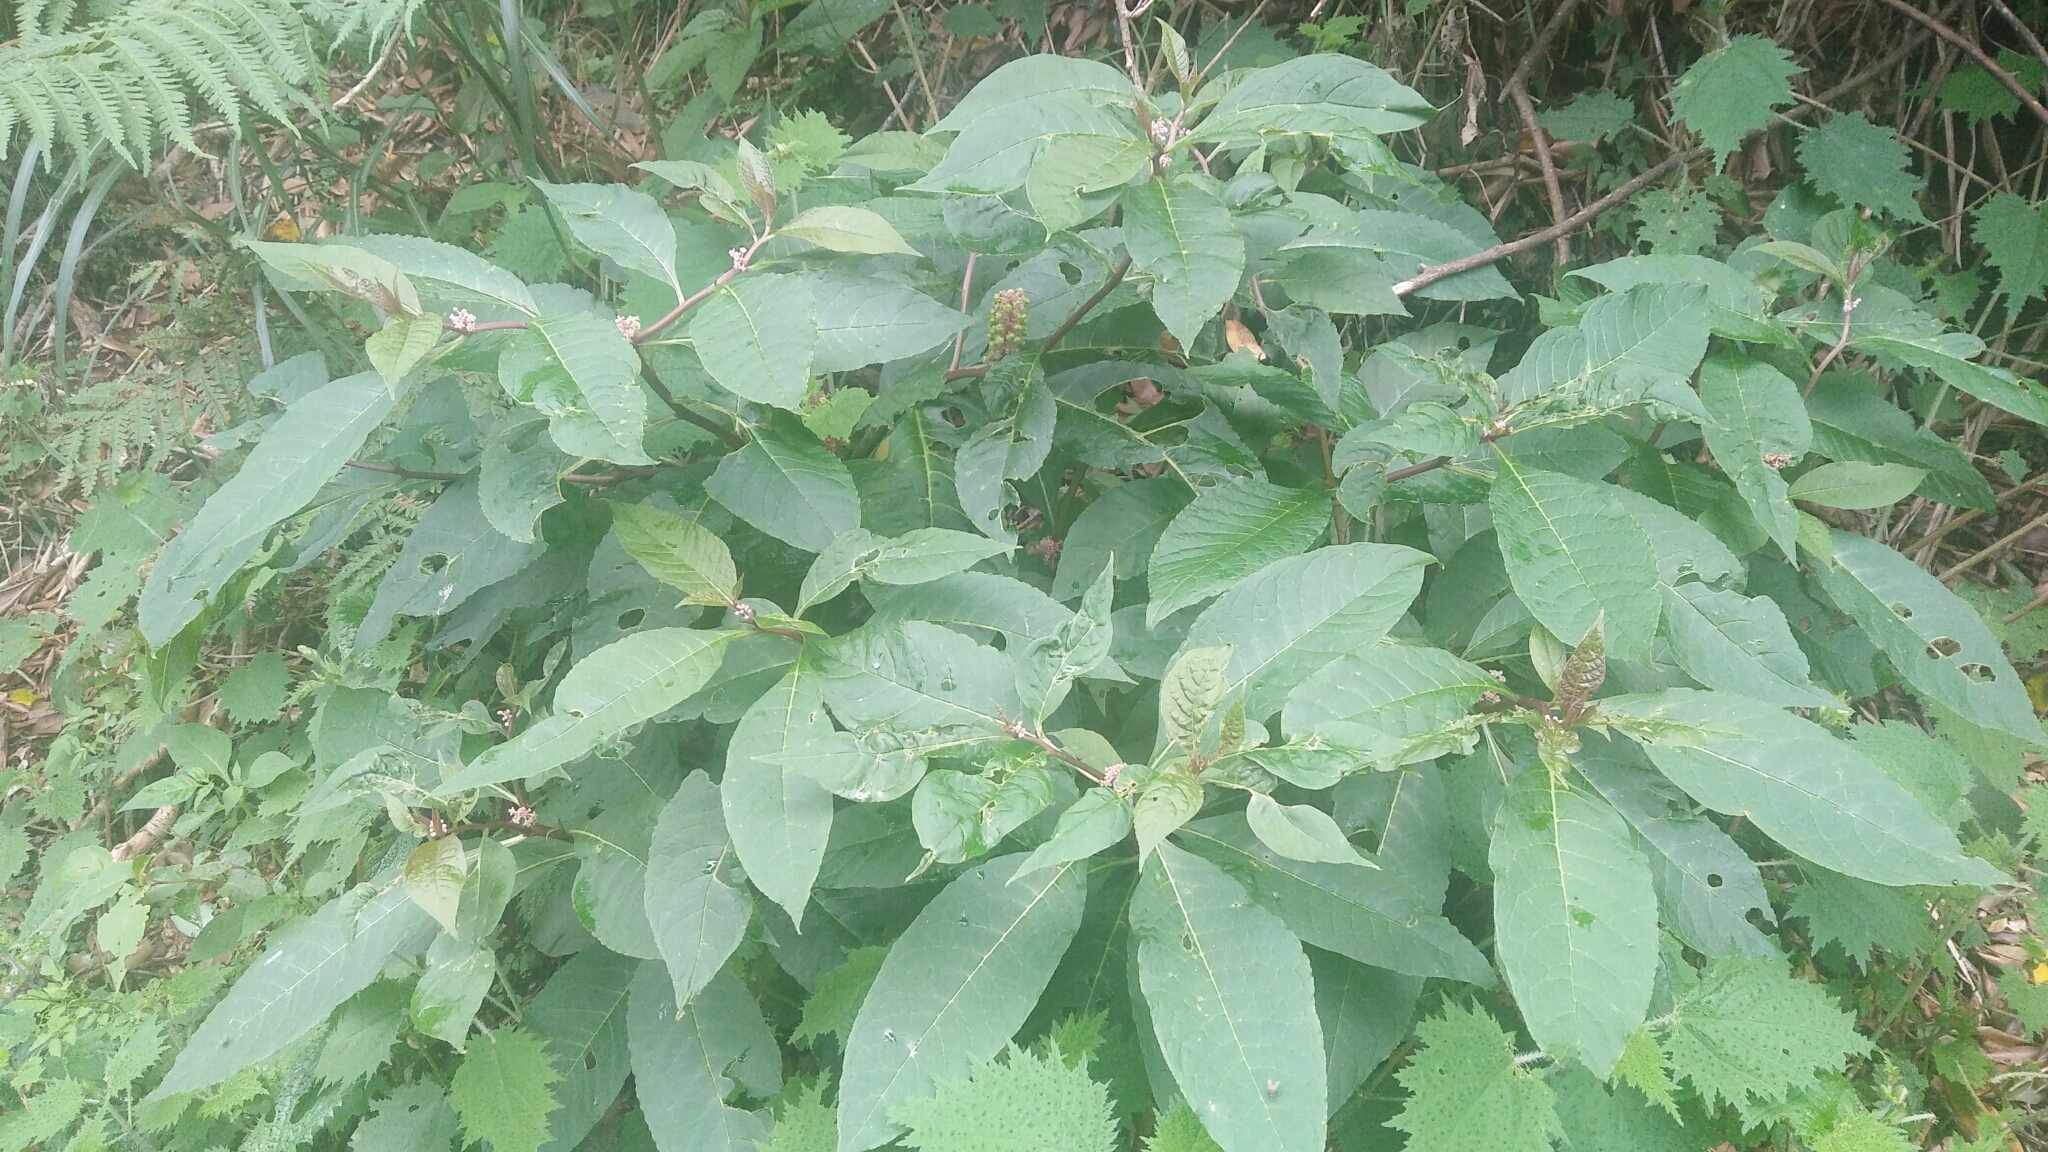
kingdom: Plantae
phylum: Tracheophyta
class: Magnoliopsida
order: Caryophyllales
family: Phytolaccaceae
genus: Phytolacca
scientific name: Phytolacca japonica
